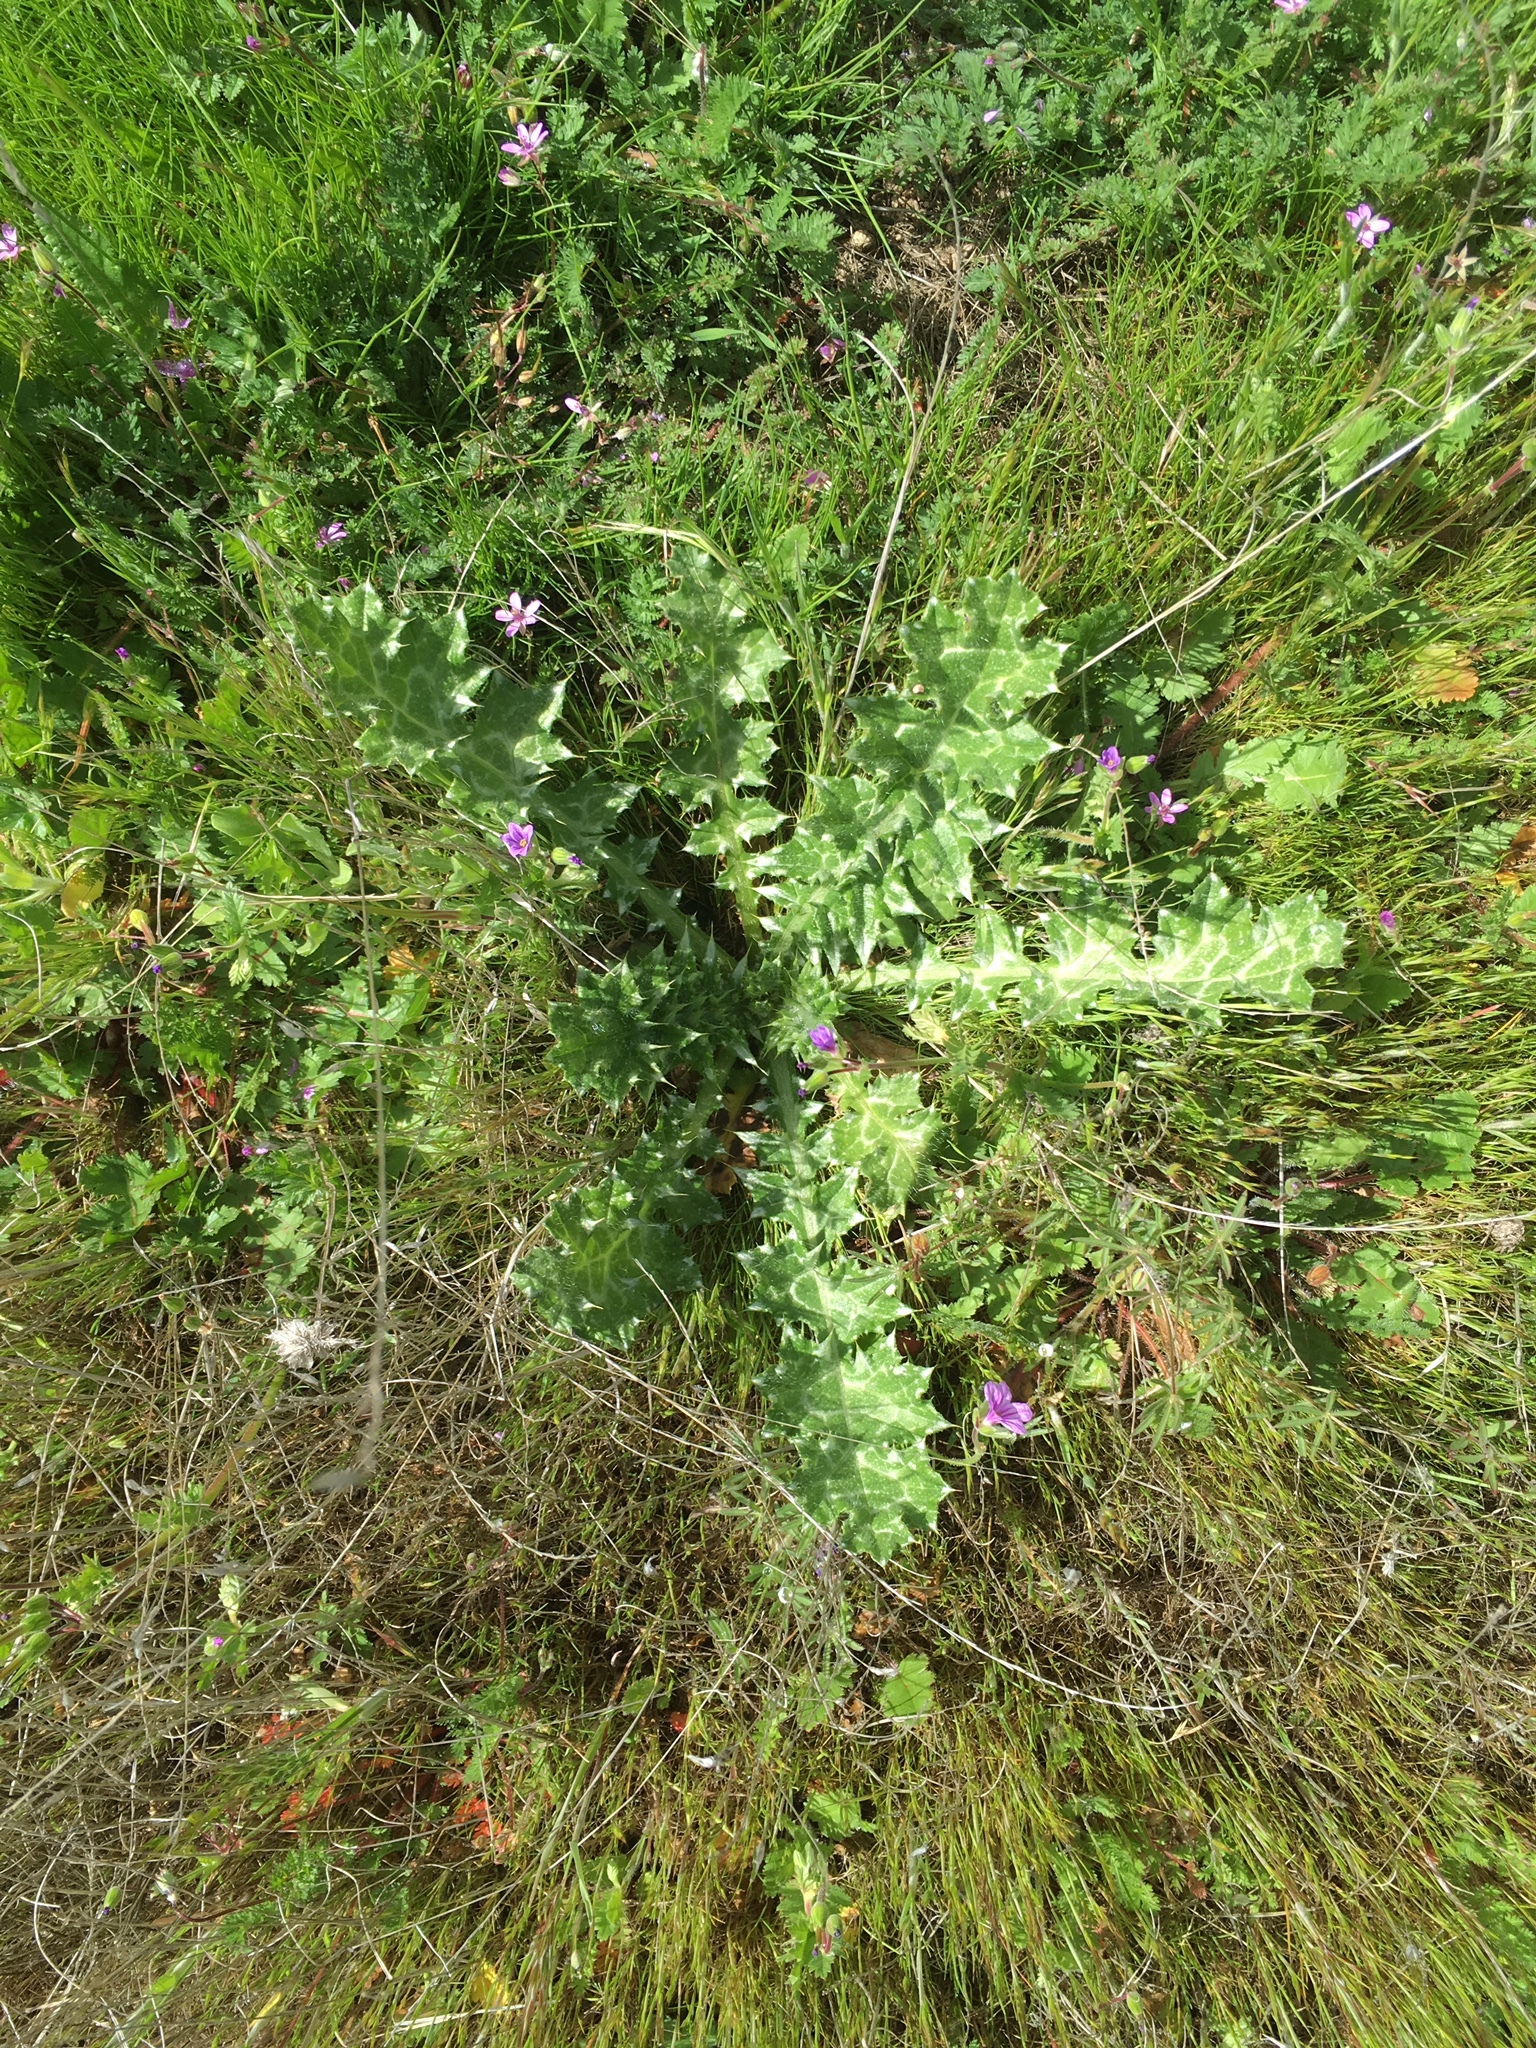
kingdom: Plantae
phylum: Tracheophyta
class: Magnoliopsida
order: Asterales
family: Asteraceae
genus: Carduus
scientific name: Carduus pycnocephalus
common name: Plymouth thistle
